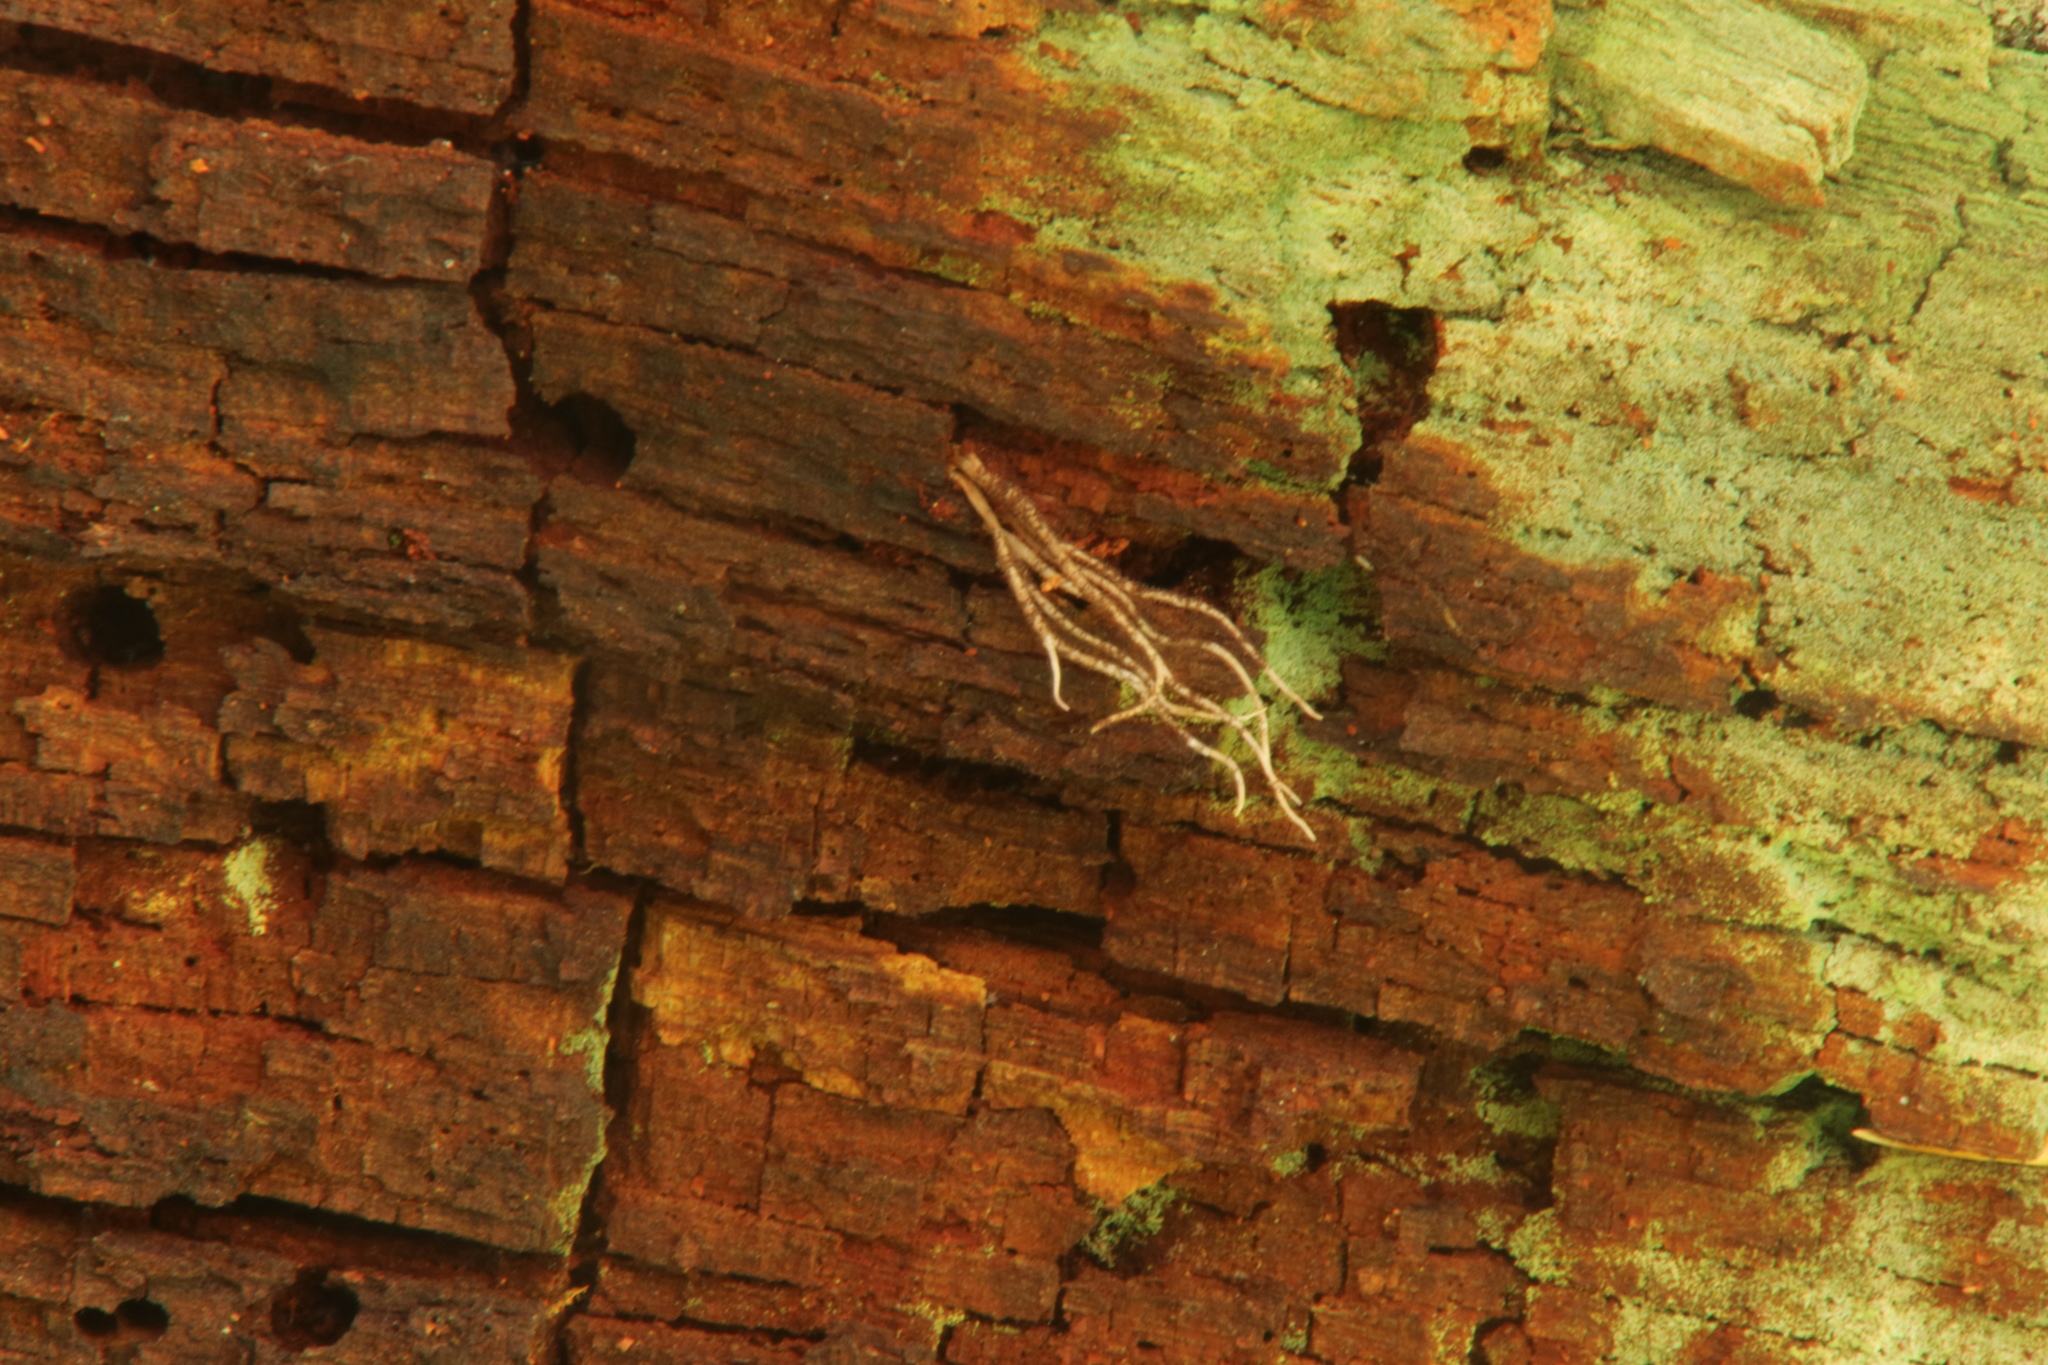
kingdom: Fungi
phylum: Ascomycota
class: Sordariomycetes
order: Hypocreales
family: Ophiocordycipitaceae
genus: Ophiocordyceps
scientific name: Ophiocordyceps michiganensis
